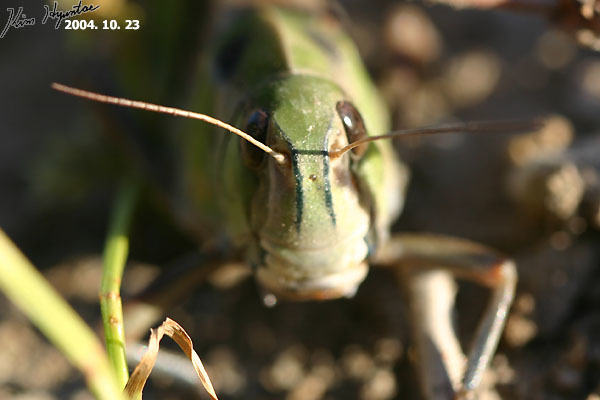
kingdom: Animalia
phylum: Arthropoda
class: Insecta
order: Orthoptera
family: Acrididae
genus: Locusta
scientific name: Locusta migratoria
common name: Migratory locust
